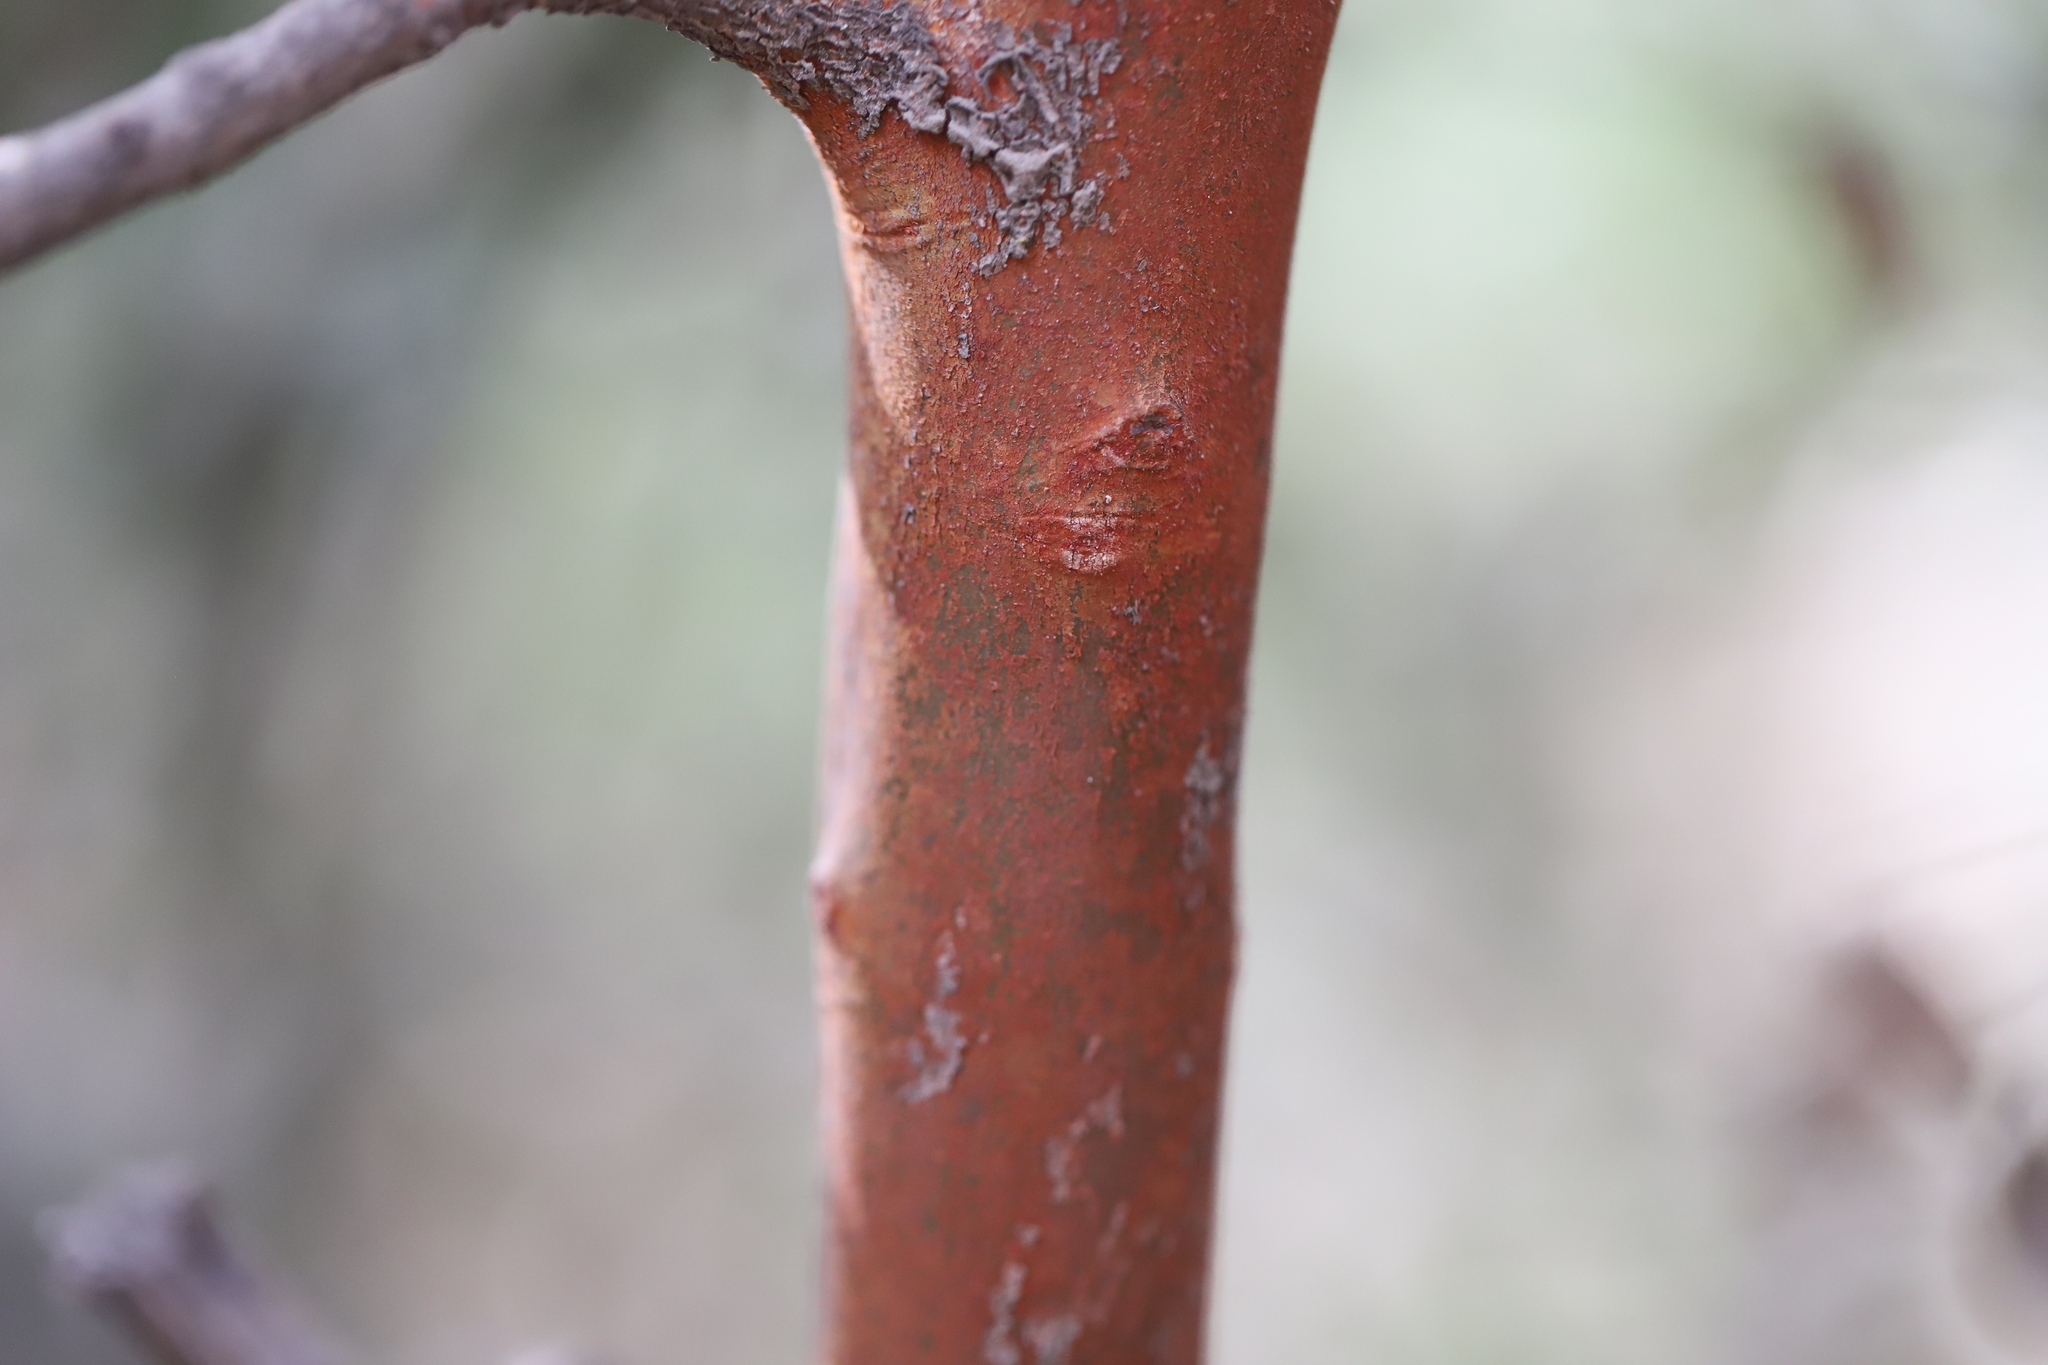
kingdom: Plantae
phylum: Tracheophyta
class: Magnoliopsida
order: Myrtales
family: Myrtaceae
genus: Luma
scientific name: Luma apiculata
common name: Chilean myrtle
